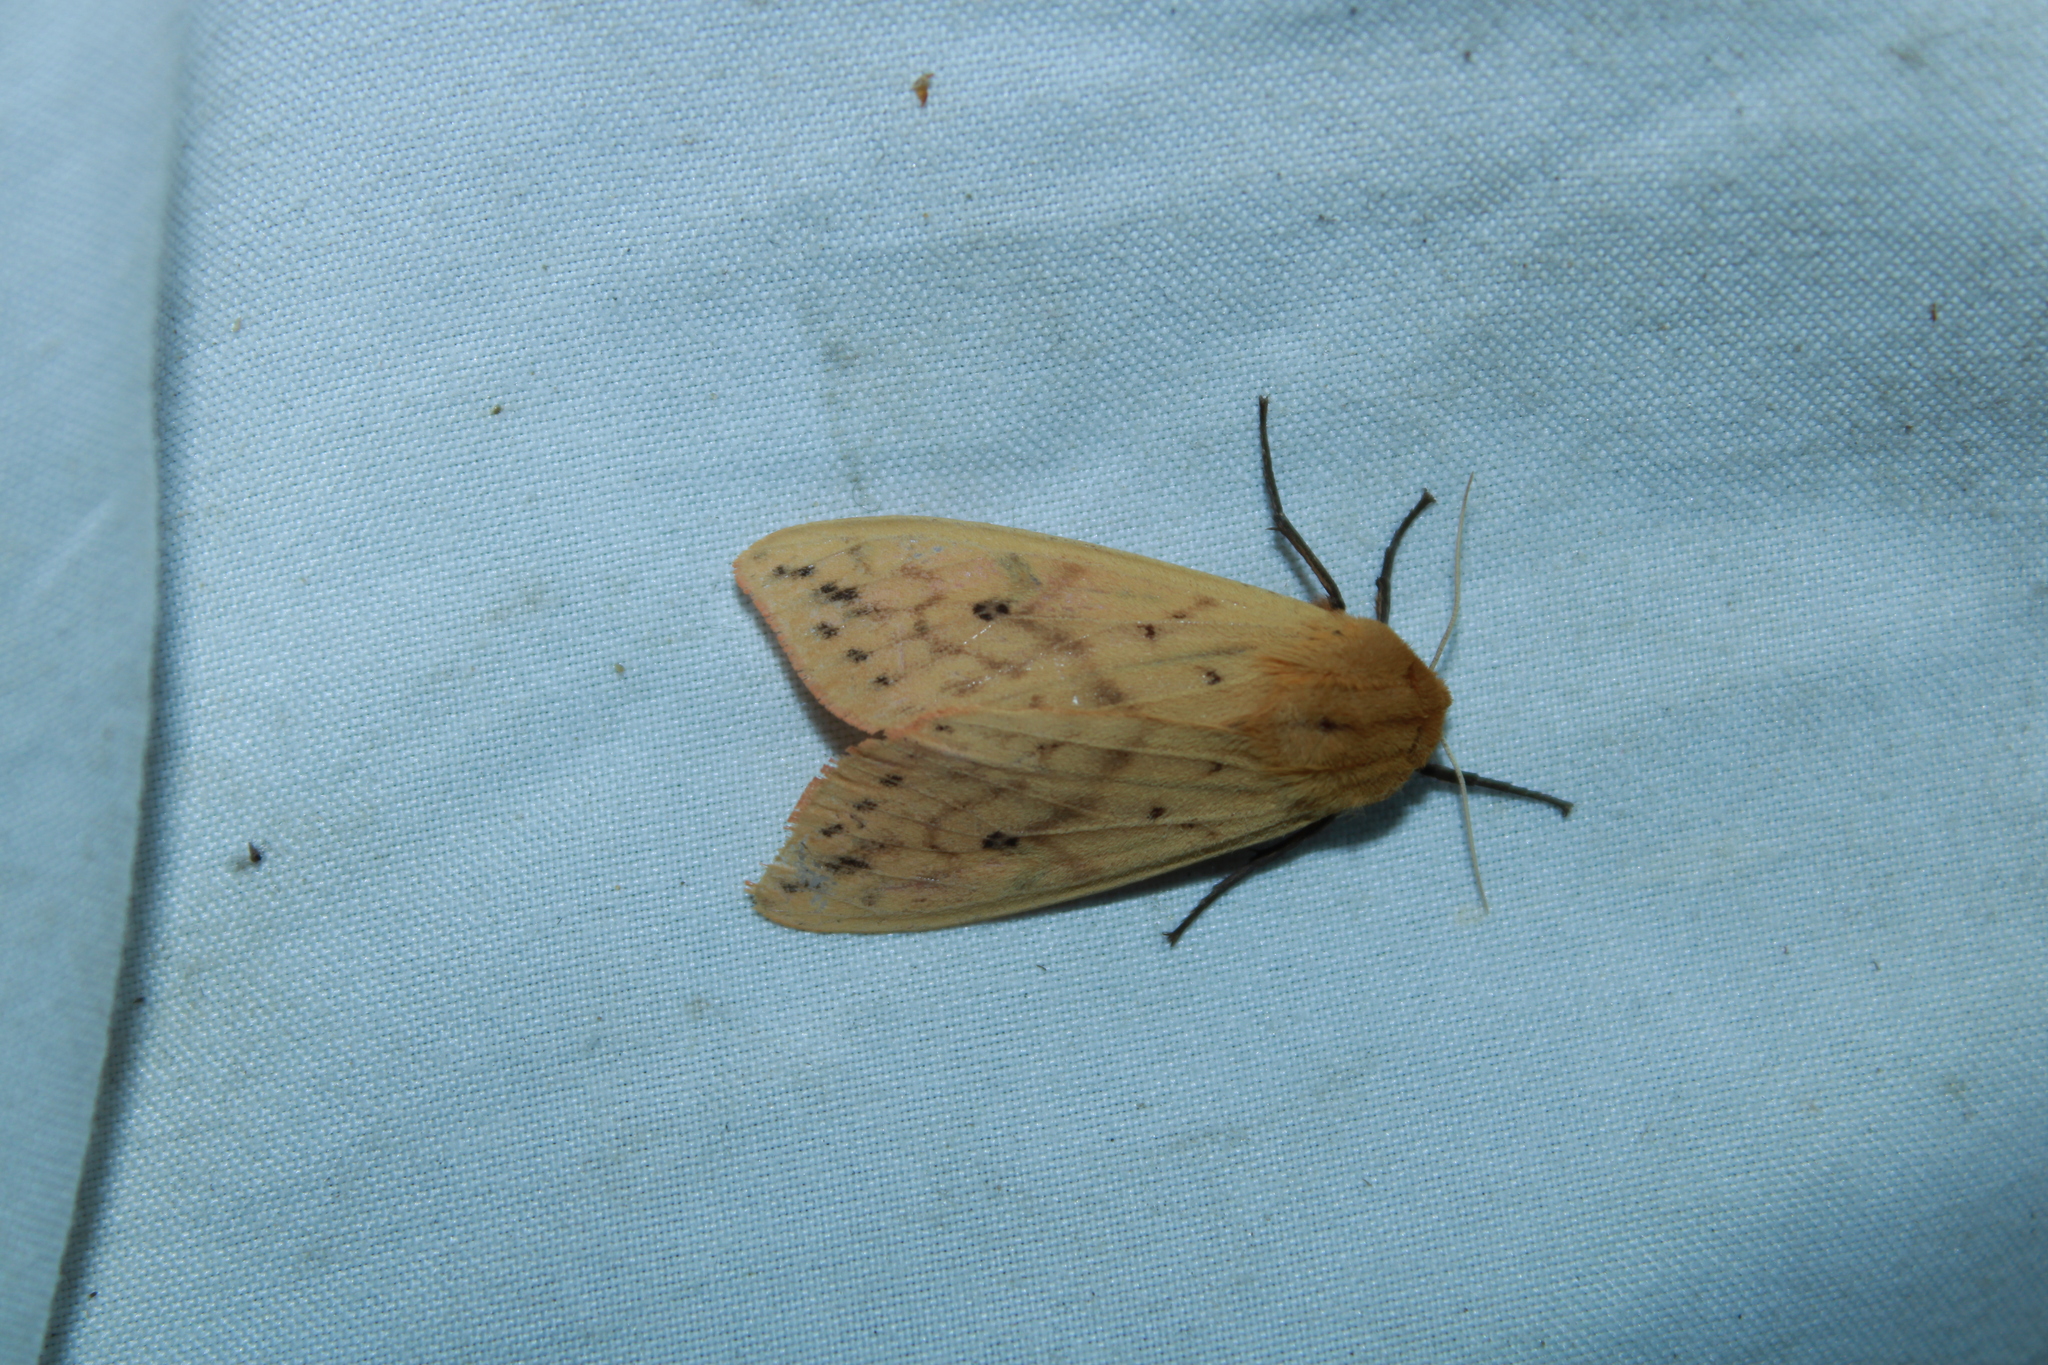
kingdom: Animalia
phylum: Arthropoda
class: Insecta
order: Lepidoptera
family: Erebidae
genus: Pyrrharctia
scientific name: Pyrrharctia isabella
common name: Isabella tiger moth
